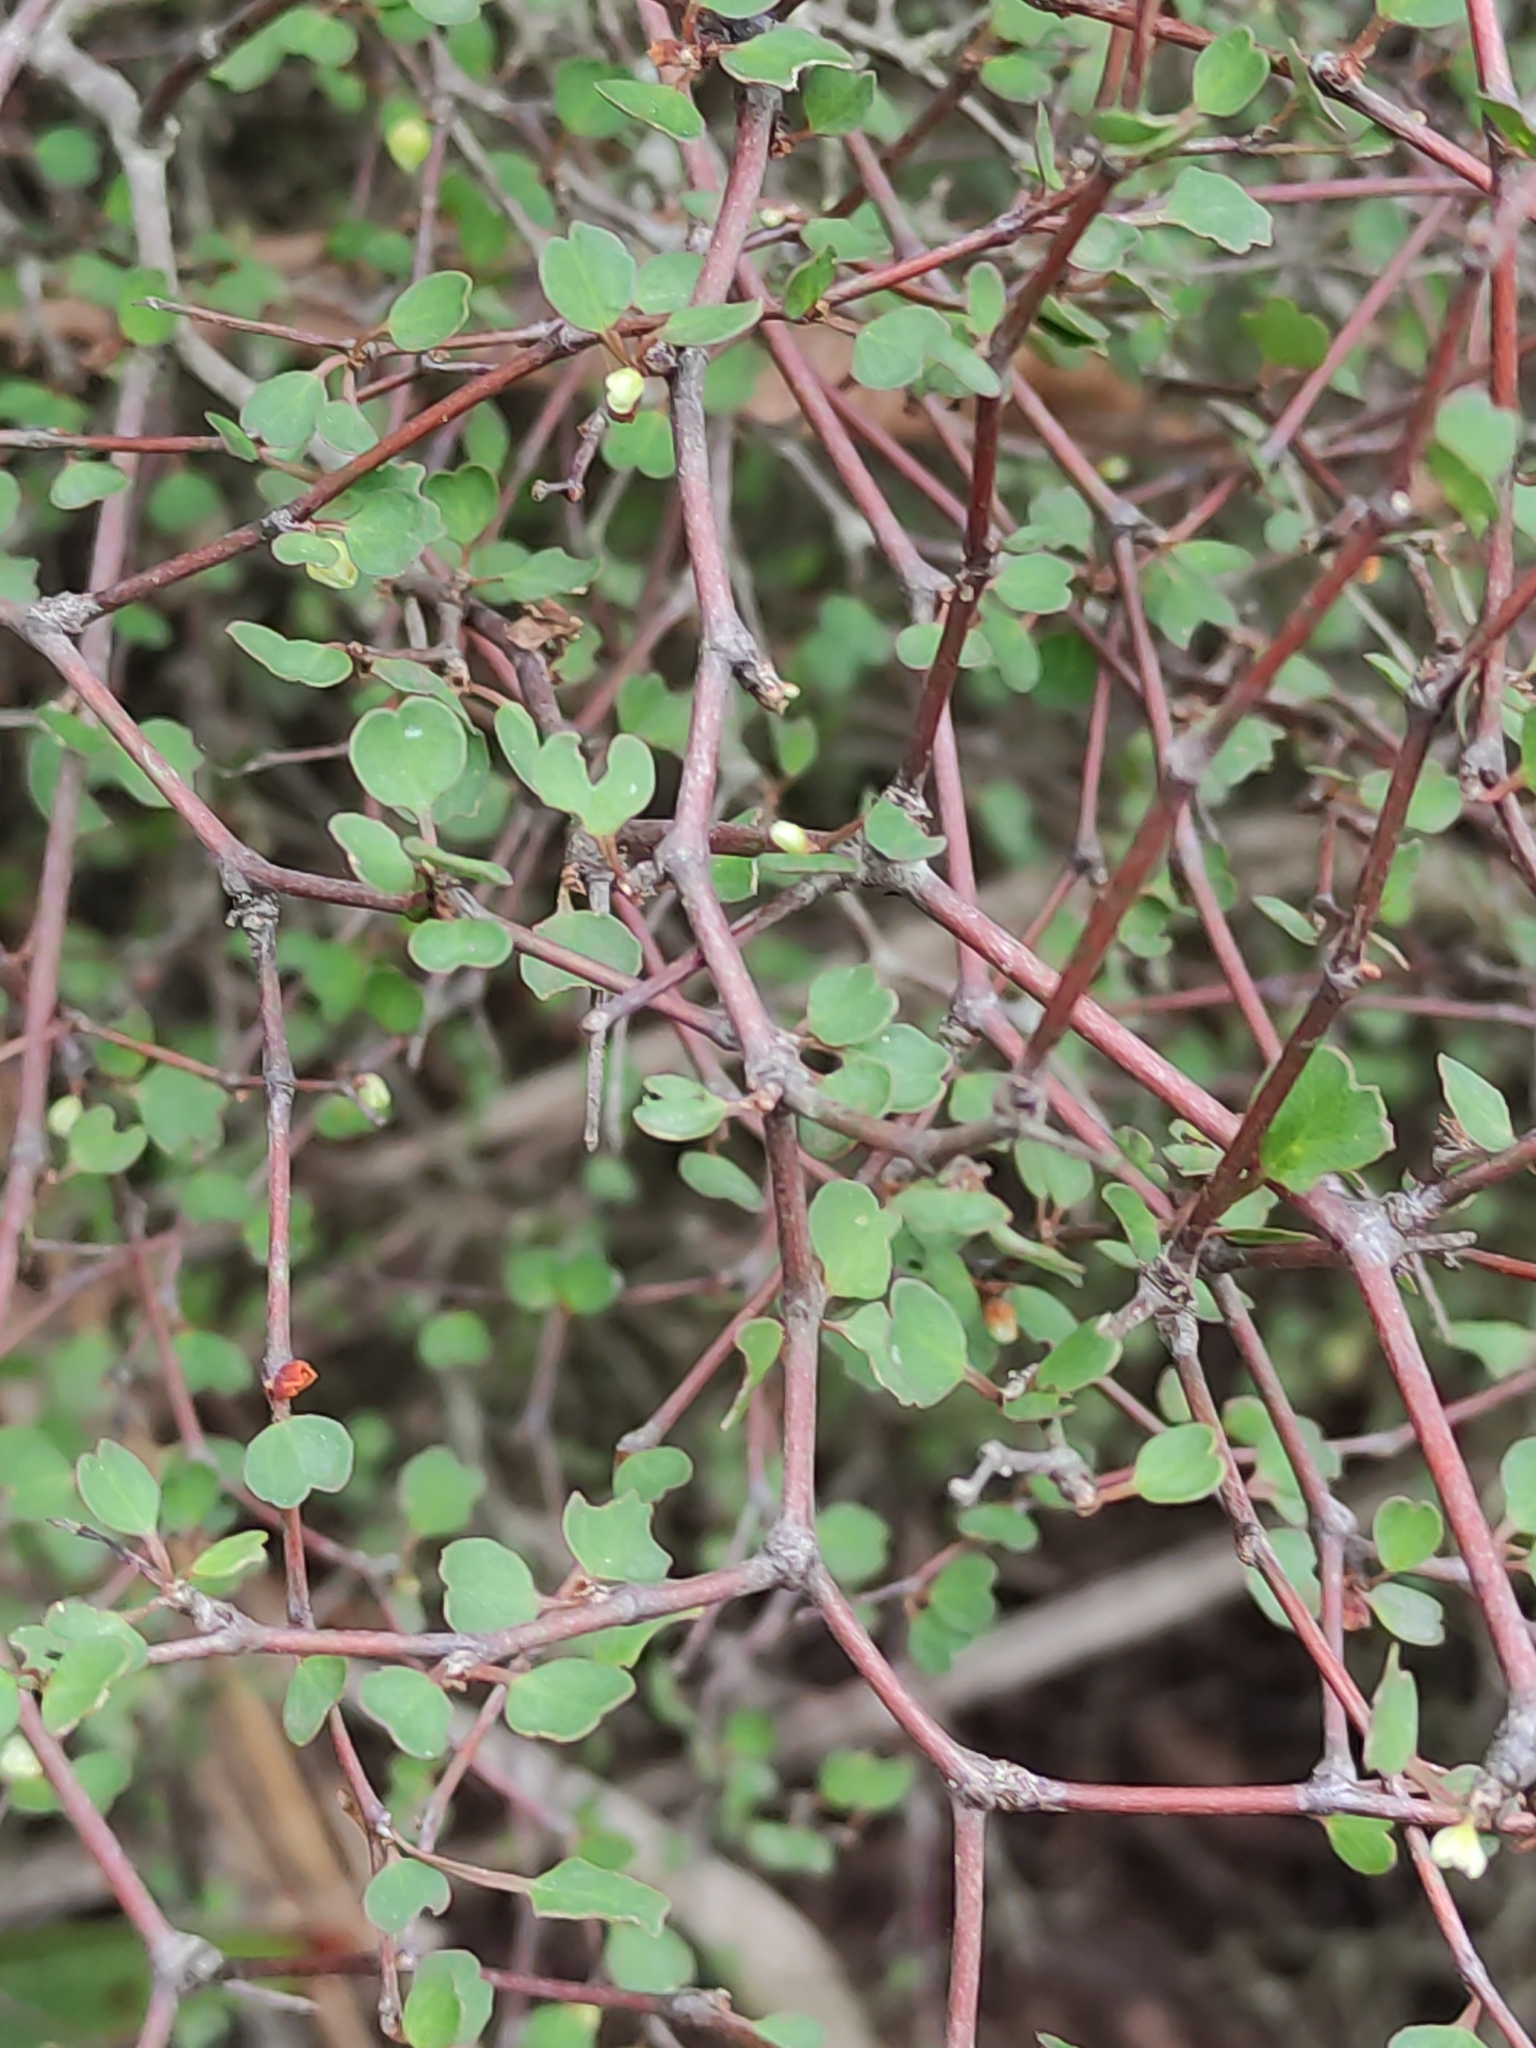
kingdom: Plantae
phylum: Tracheophyta
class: Magnoliopsida
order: Caryophyllales
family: Polygonaceae
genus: Muehlenbeckia
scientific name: Muehlenbeckia astonii
